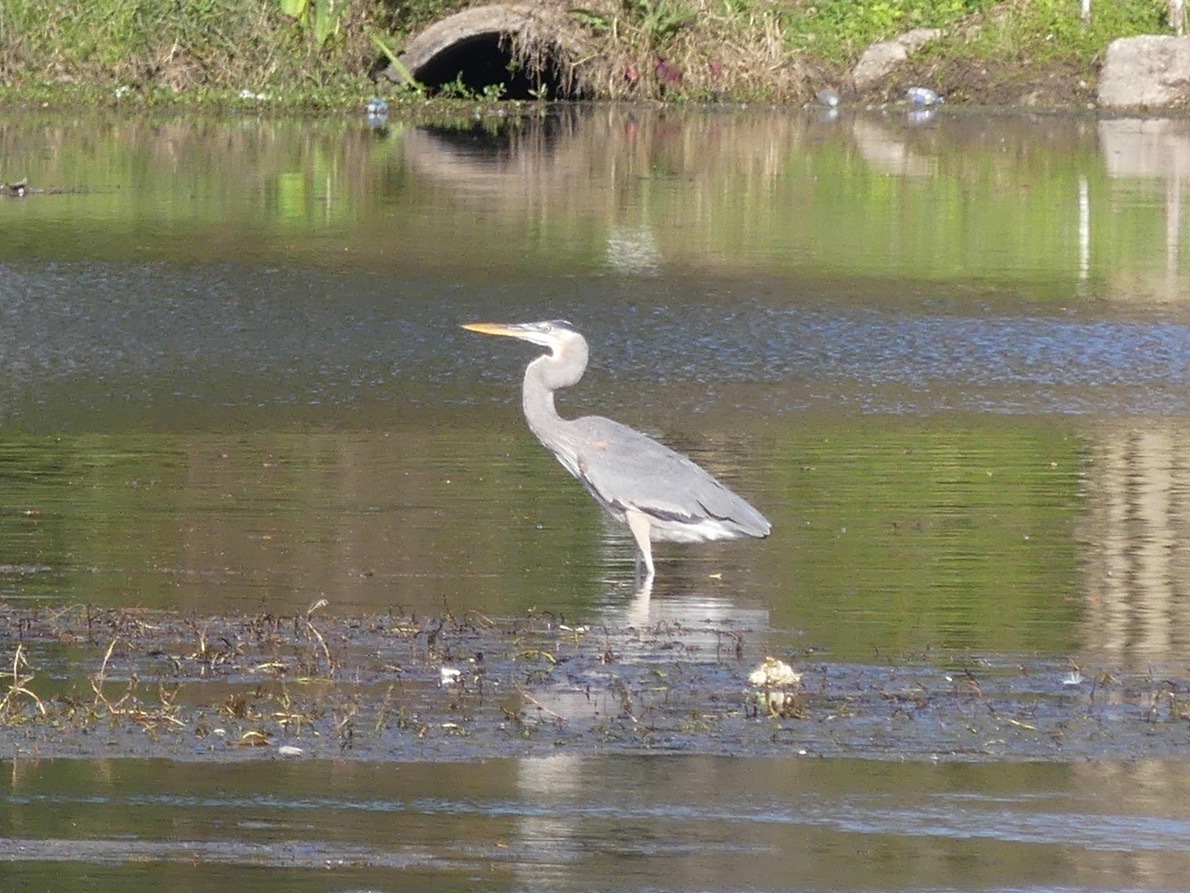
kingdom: Animalia
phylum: Chordata
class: Aves
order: Pelecaniformes
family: Ardeidae
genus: Ardea
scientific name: Ardea herodias
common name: Great blue heron
